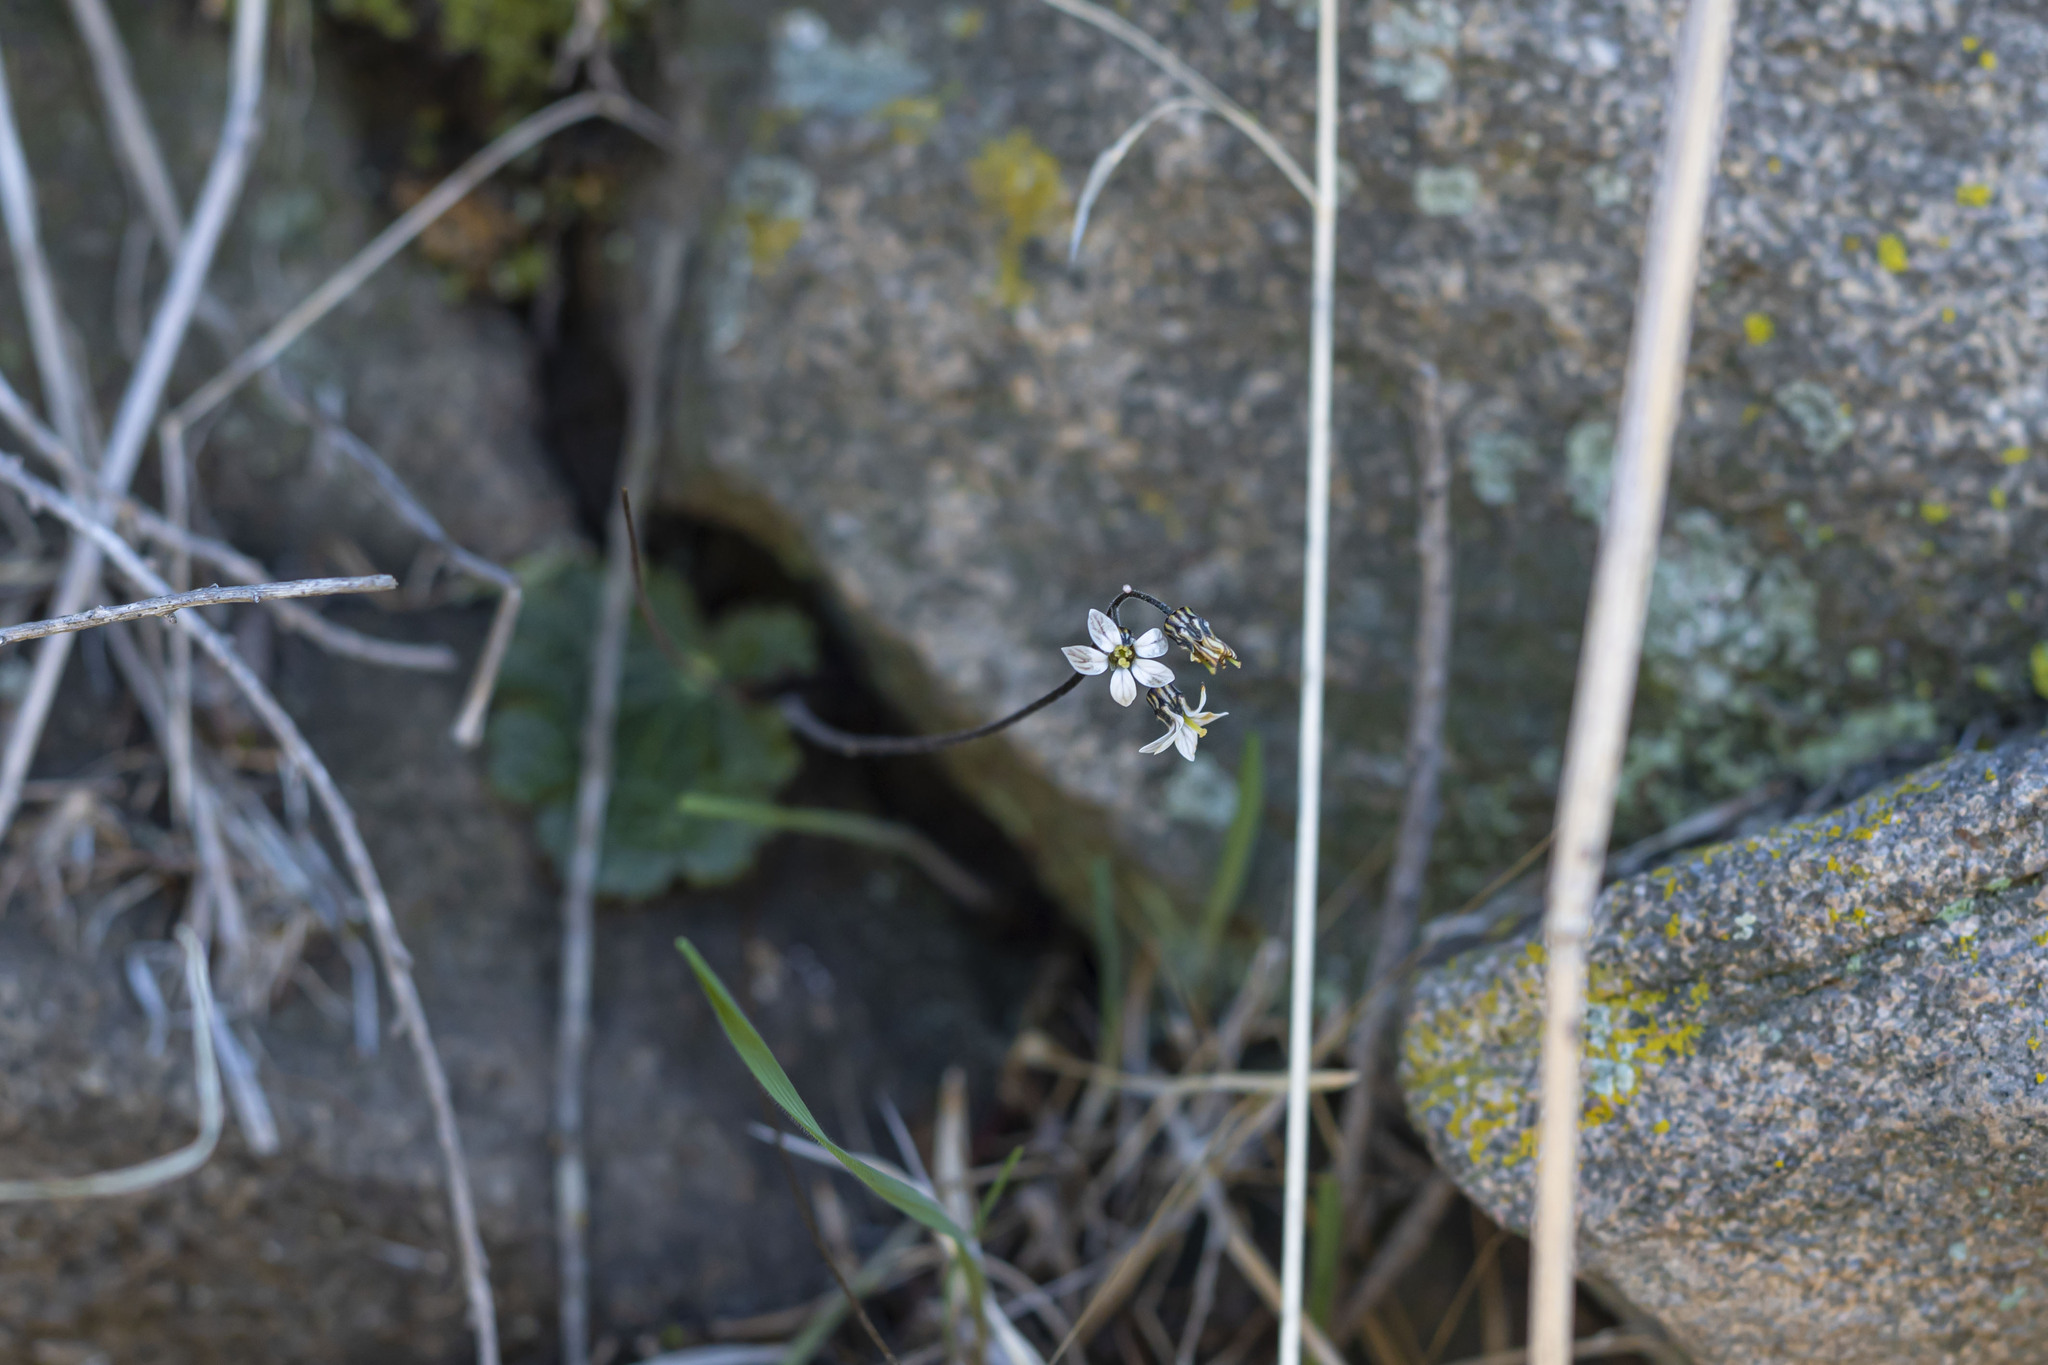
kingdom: Plantae
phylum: Tracheophyta
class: Magnoliopsida
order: Saxifragales
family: Saxifragaceae
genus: Jepsonia
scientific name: Jepsonia parryi
